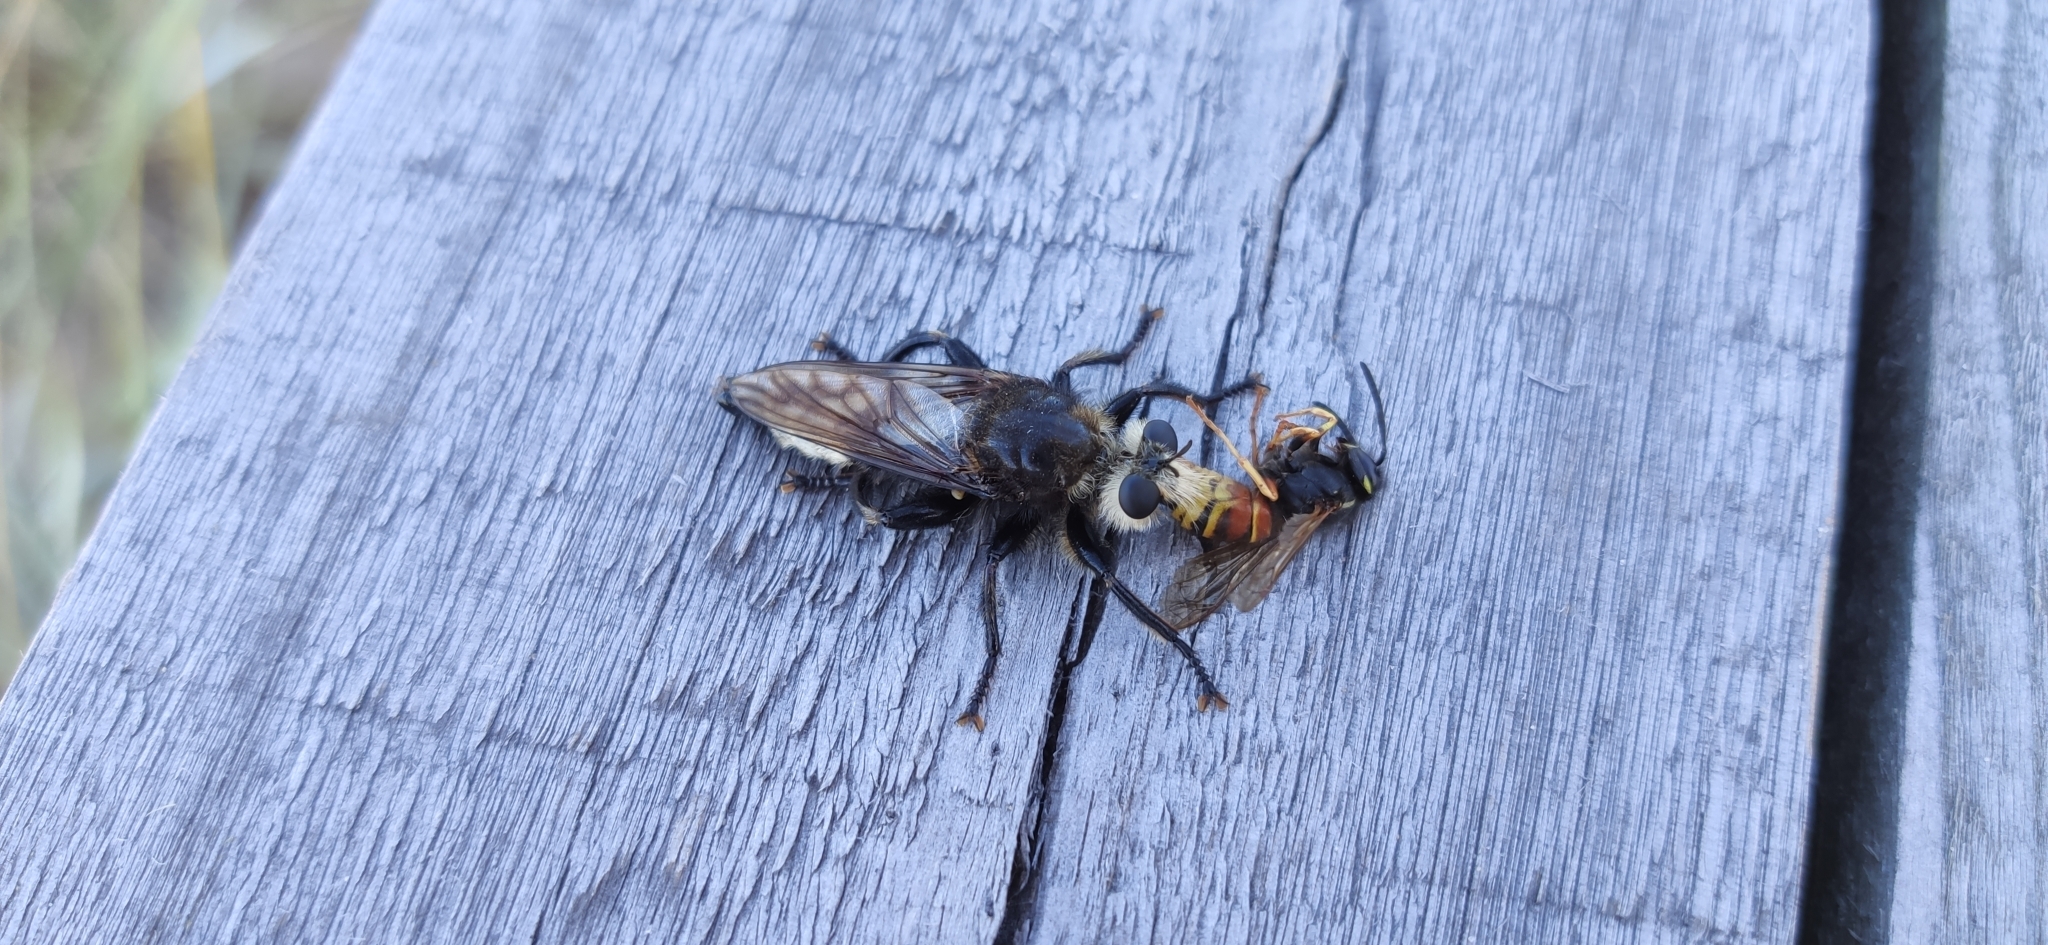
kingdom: Animalia
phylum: Arthropoda
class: Insecta
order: Diptera
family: Asilidae
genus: Laphria
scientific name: Laphria gibbosa
